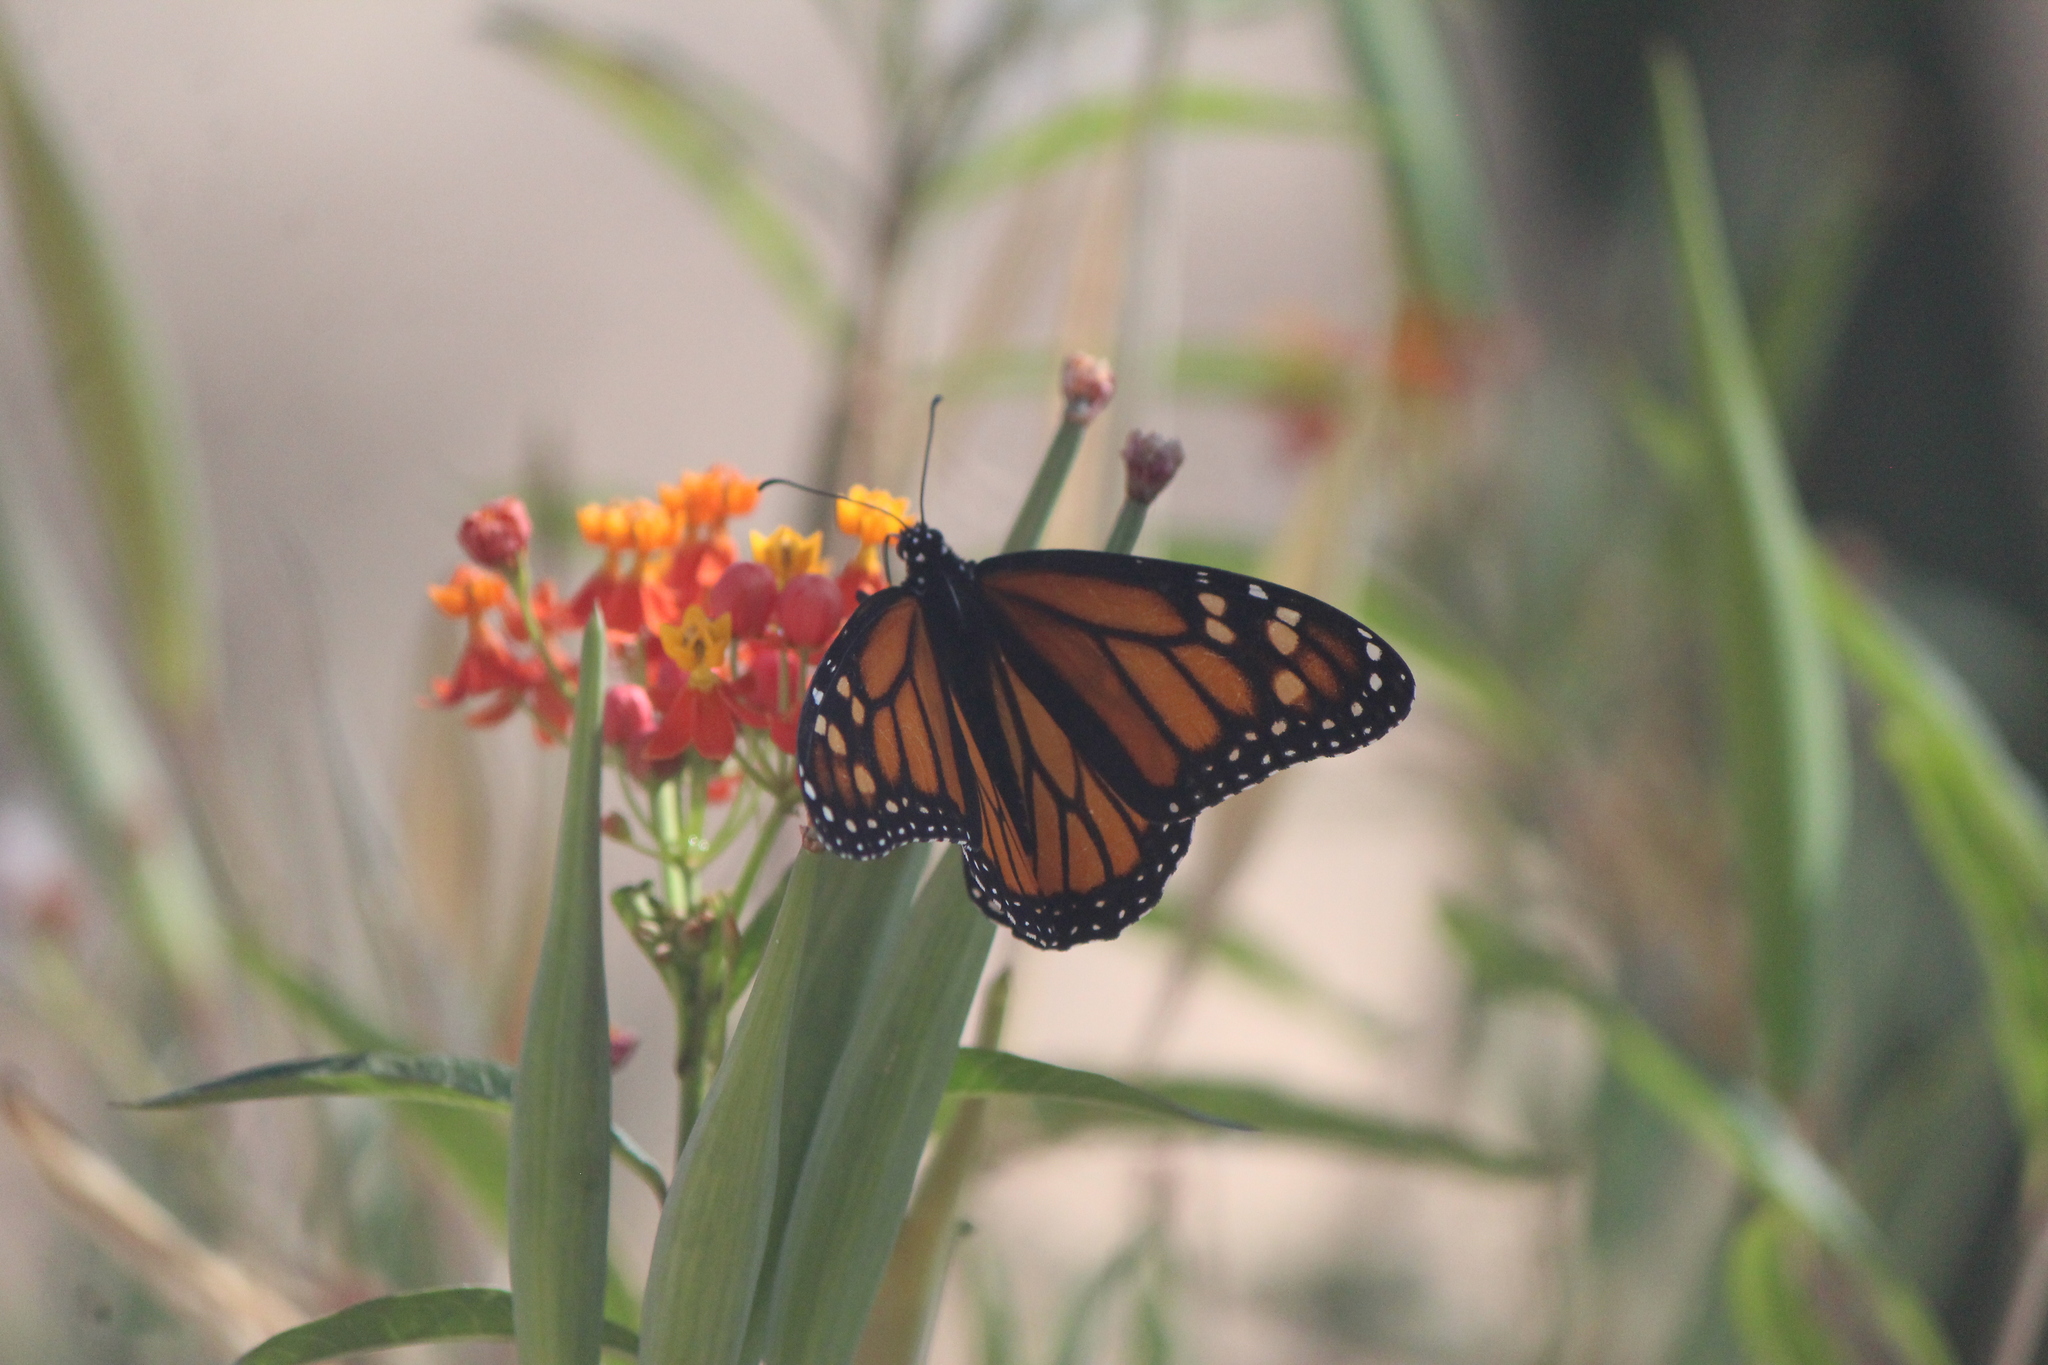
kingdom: Animalia
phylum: Arthropoda
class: Insecta
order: Lepidoptera
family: Nymphalidae
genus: Danaus
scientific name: Danaus plexippus
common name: Monarch
